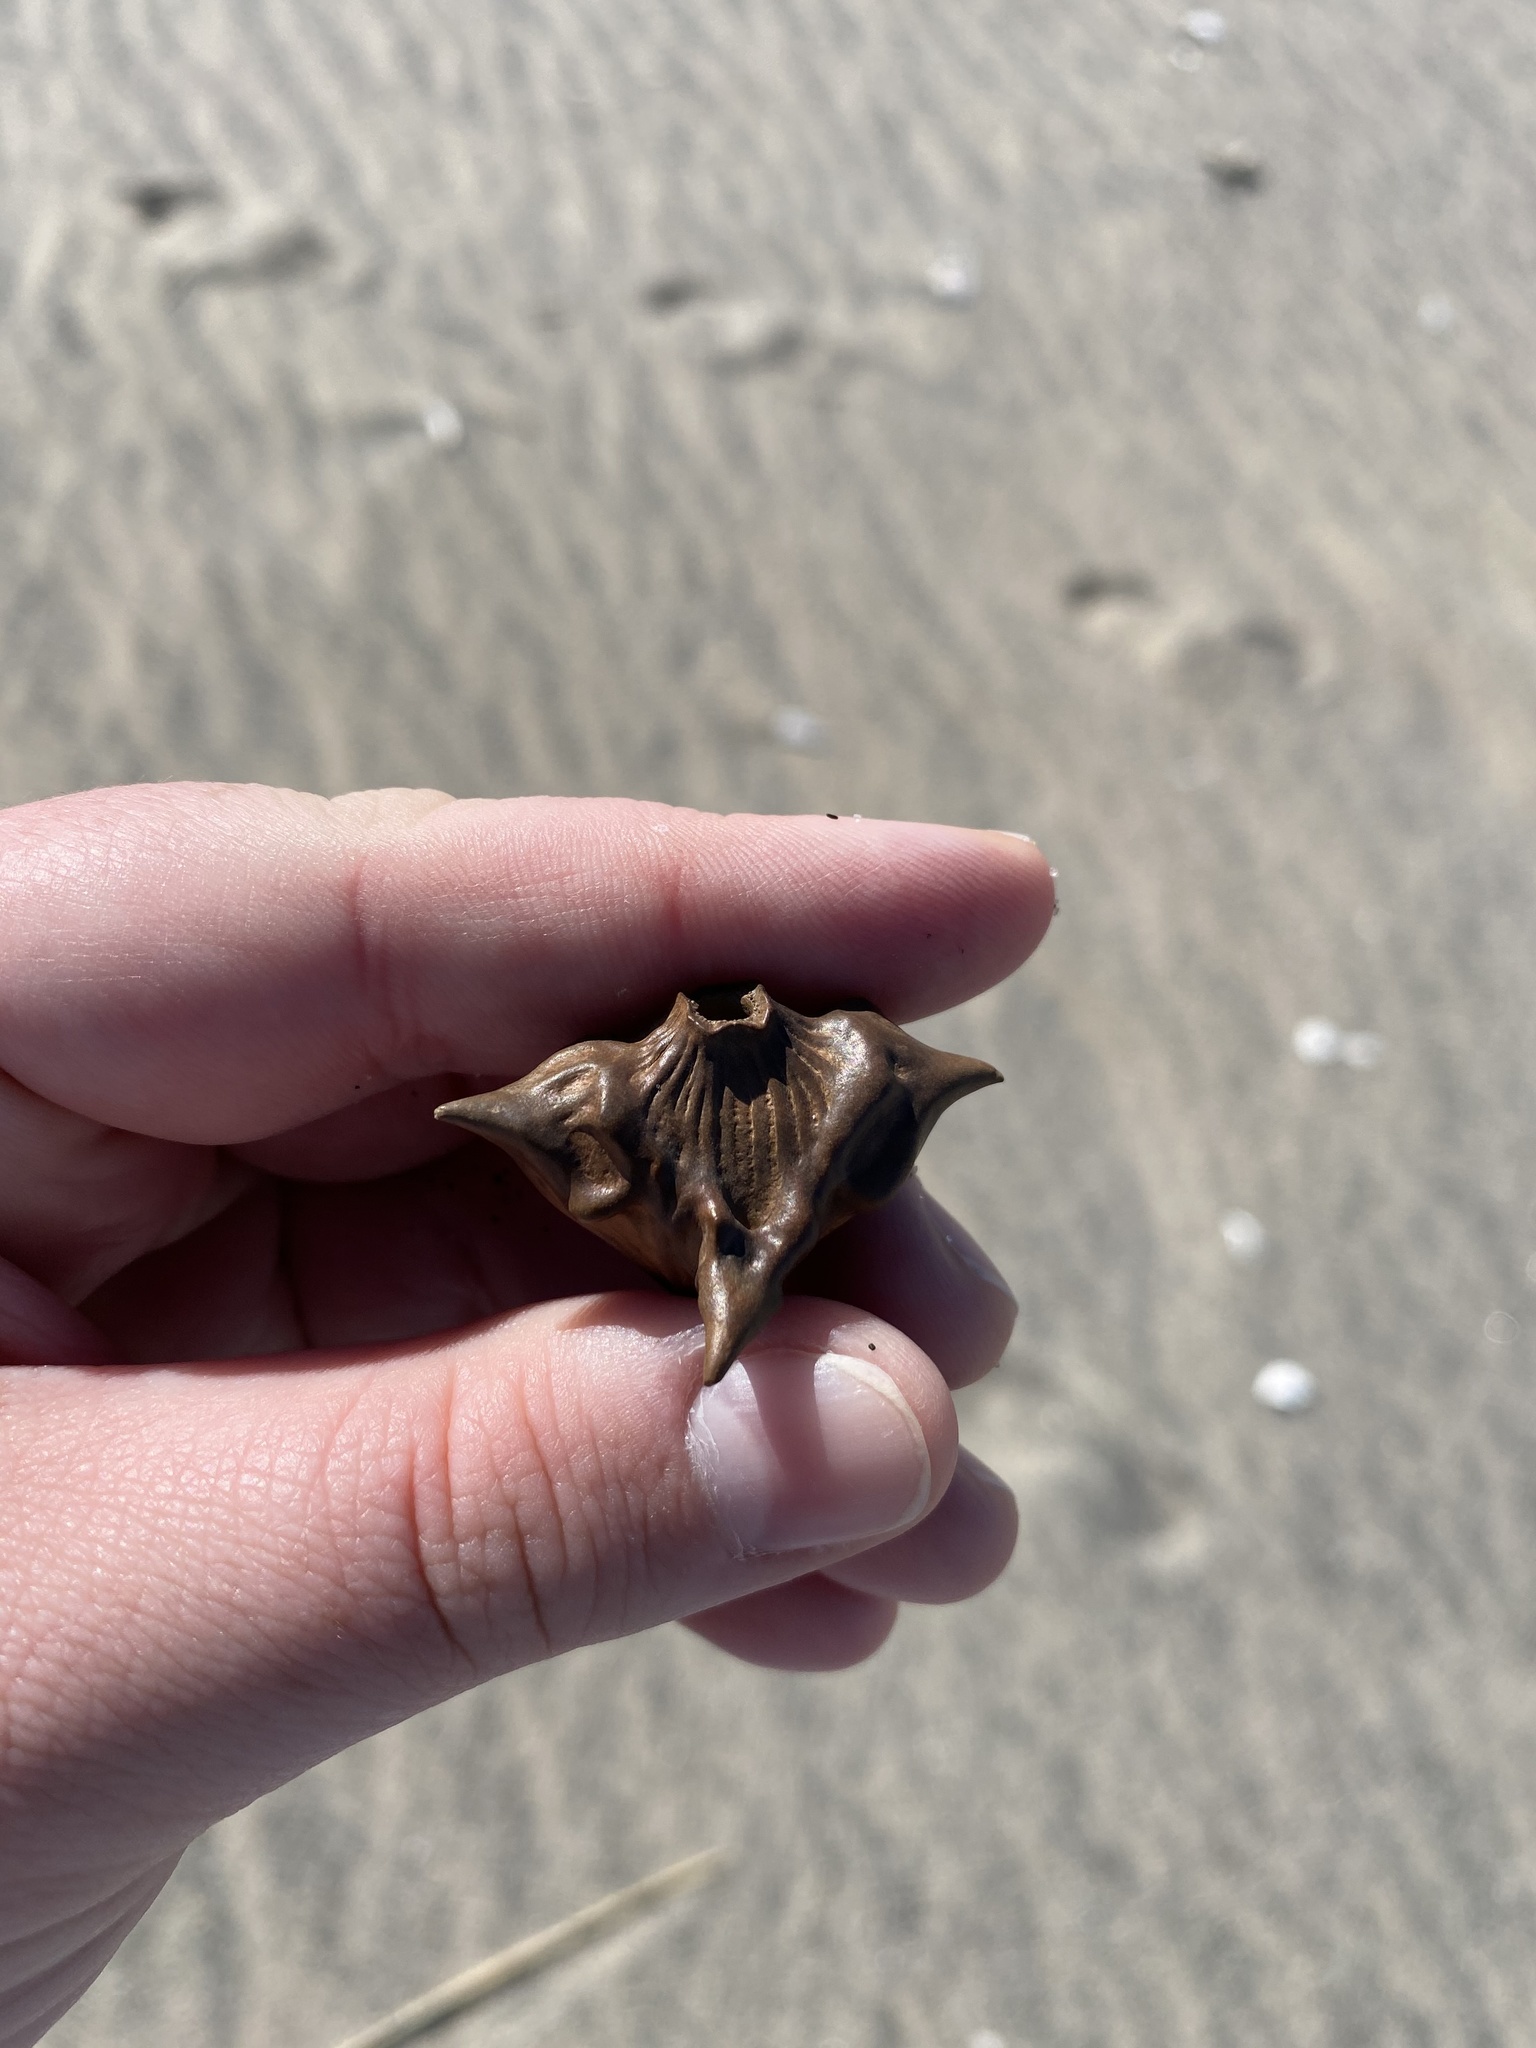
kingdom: Plantae
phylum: Tracheophyta
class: Magnoliopsida
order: Myrtales
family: Lythraceae
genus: Trapa
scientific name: Trapa natans
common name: Water chestnut
